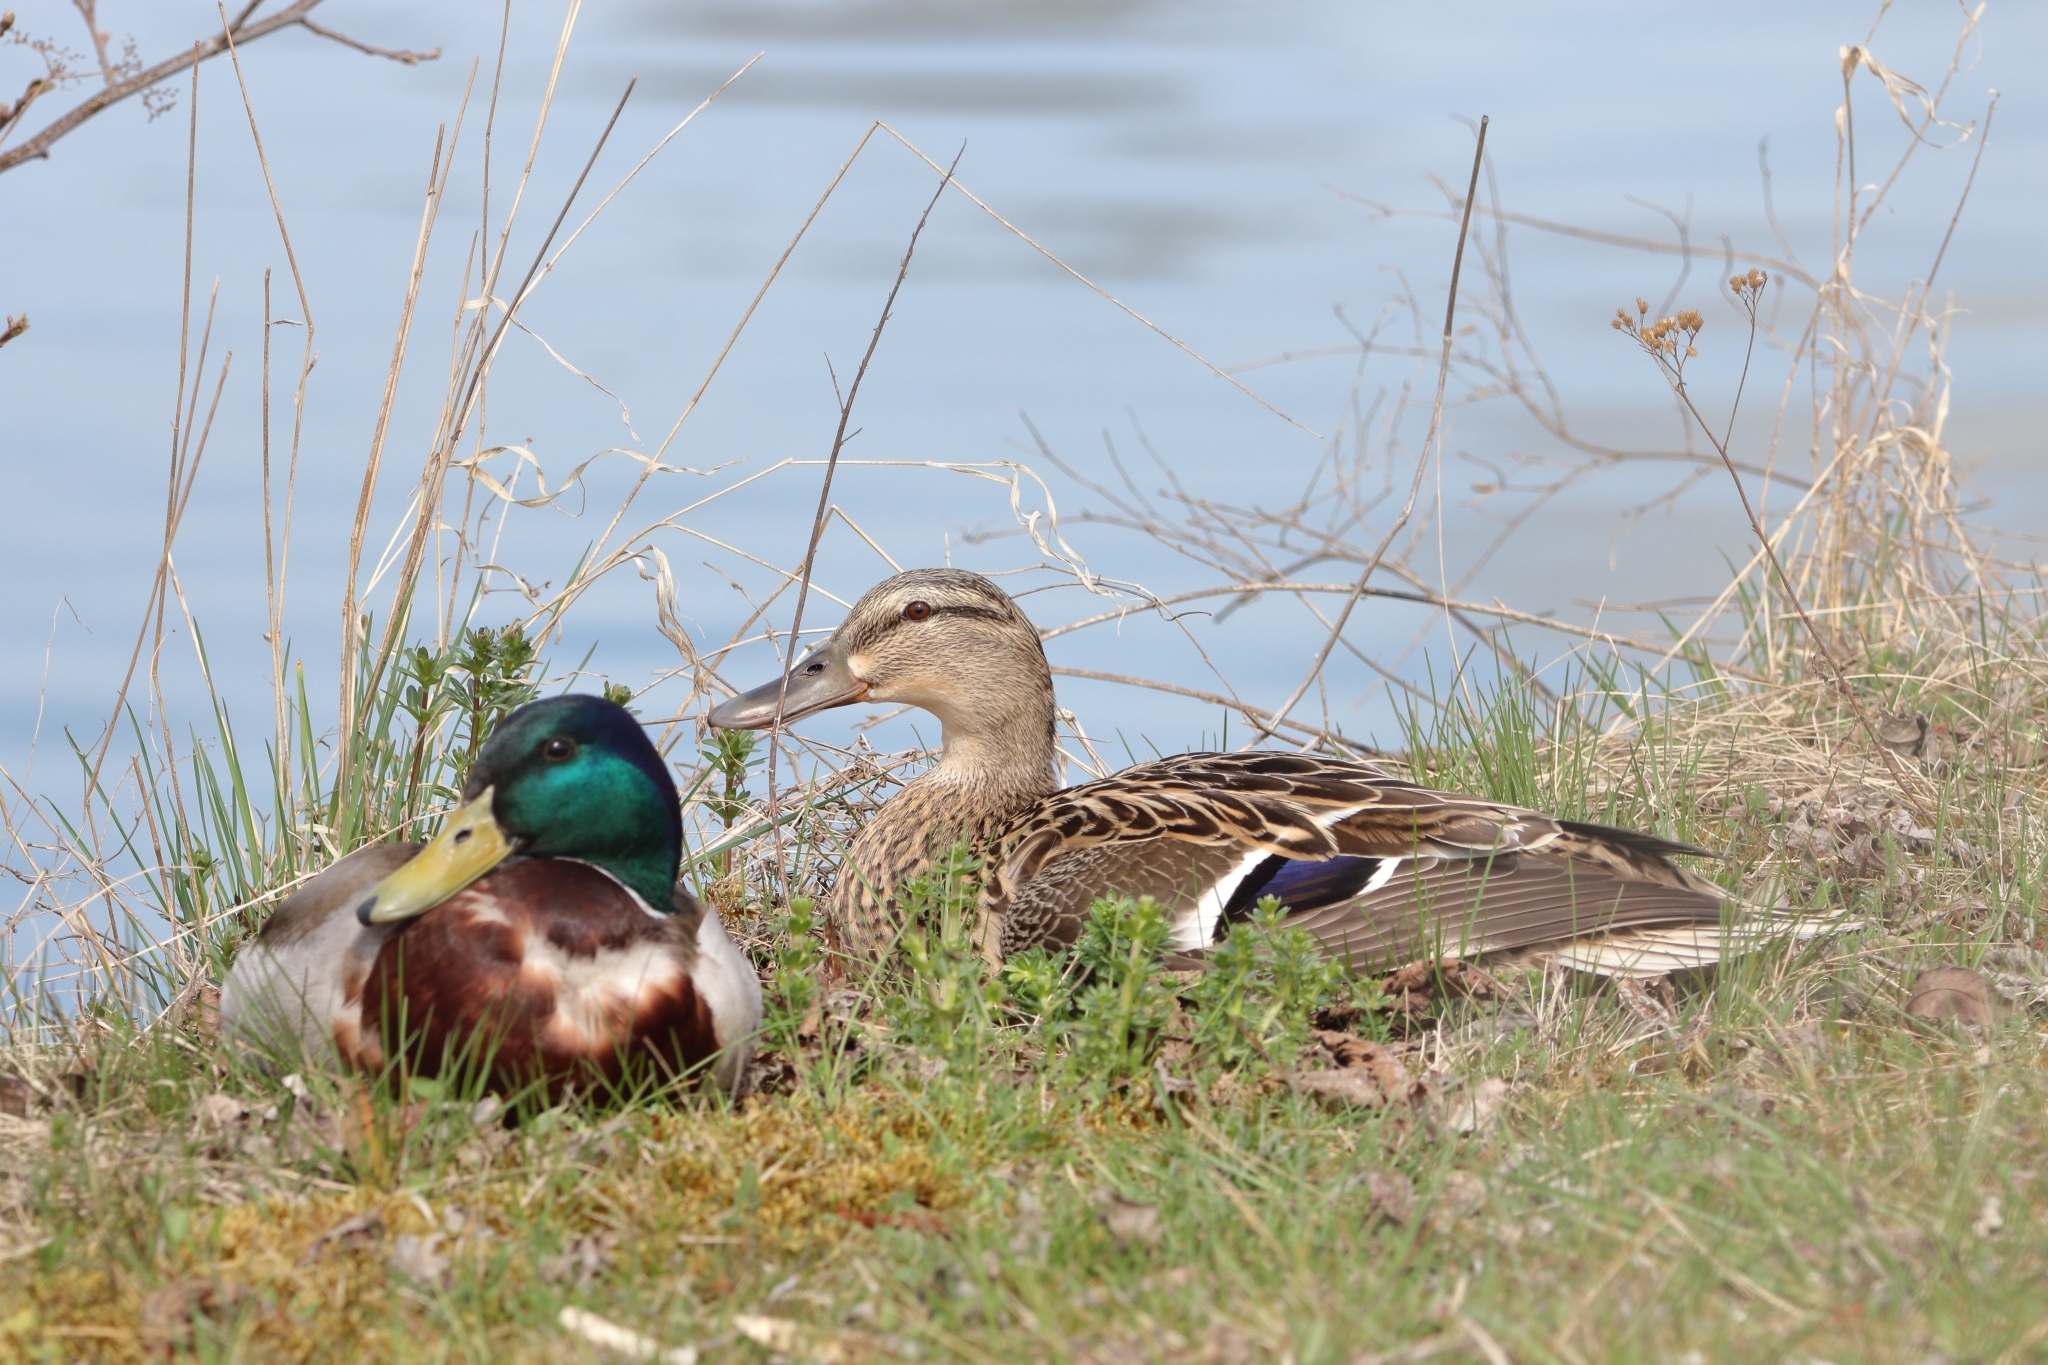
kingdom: Animalia
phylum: Chordata
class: Aves
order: Anseriformes
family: Anatidae
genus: Anas
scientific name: Anas platyrhynchos
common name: Mallard
